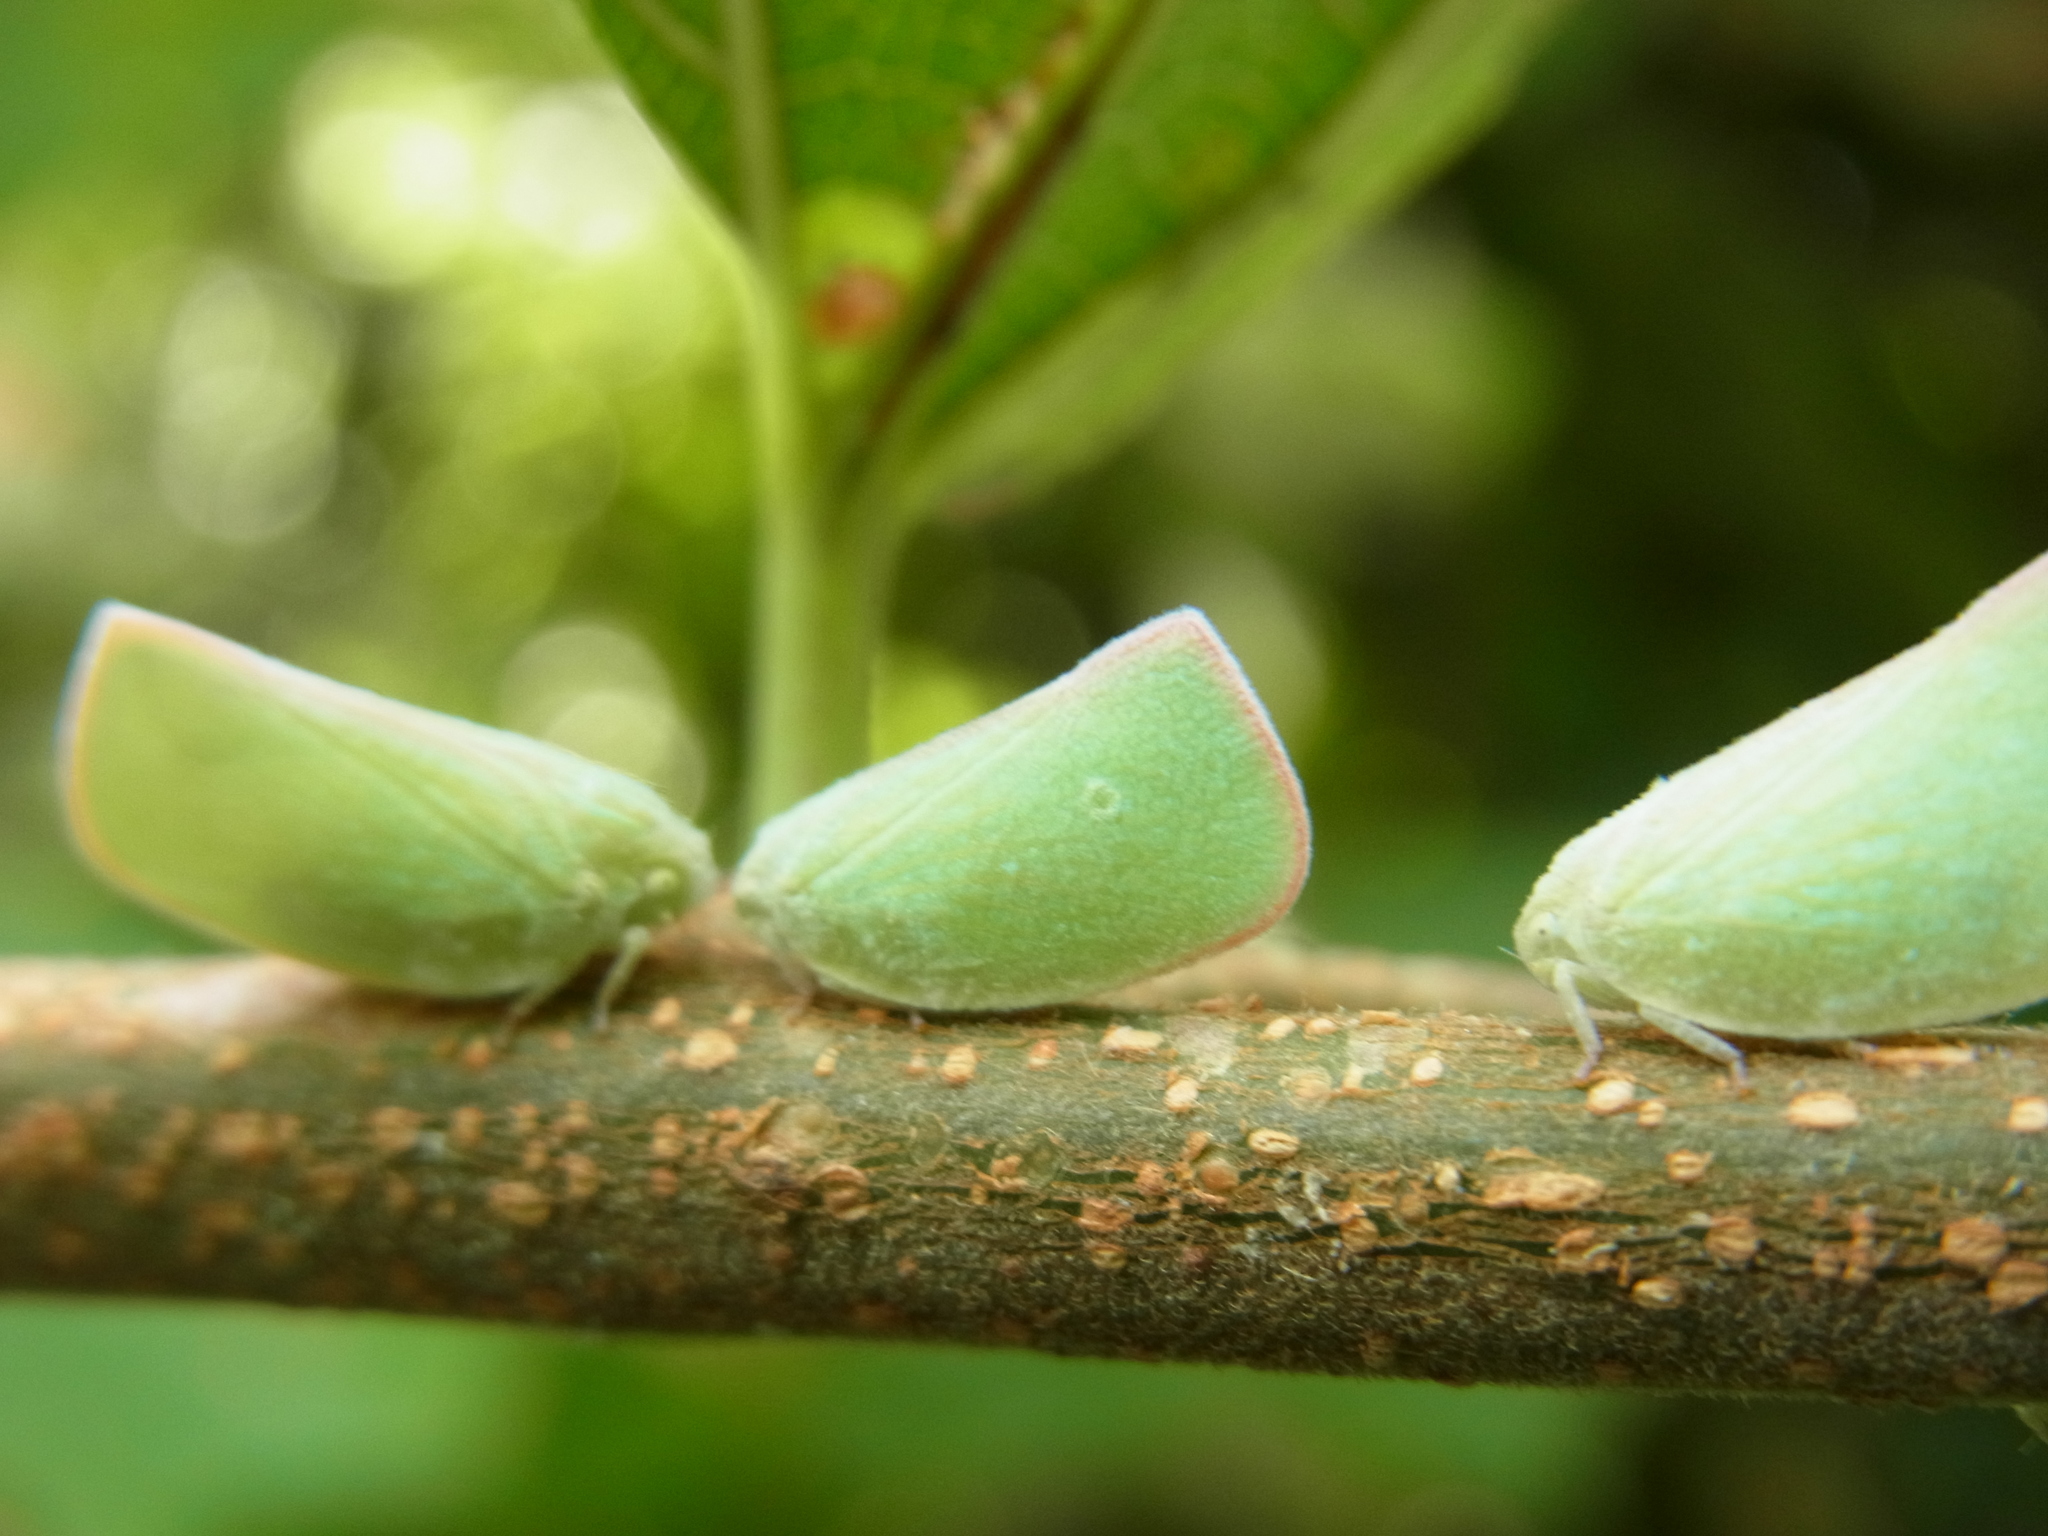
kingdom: Animalia
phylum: Arthropoda
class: Insecta
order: Hemiptera
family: Flatidae
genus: Geisha
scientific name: Geisha distinctissima
